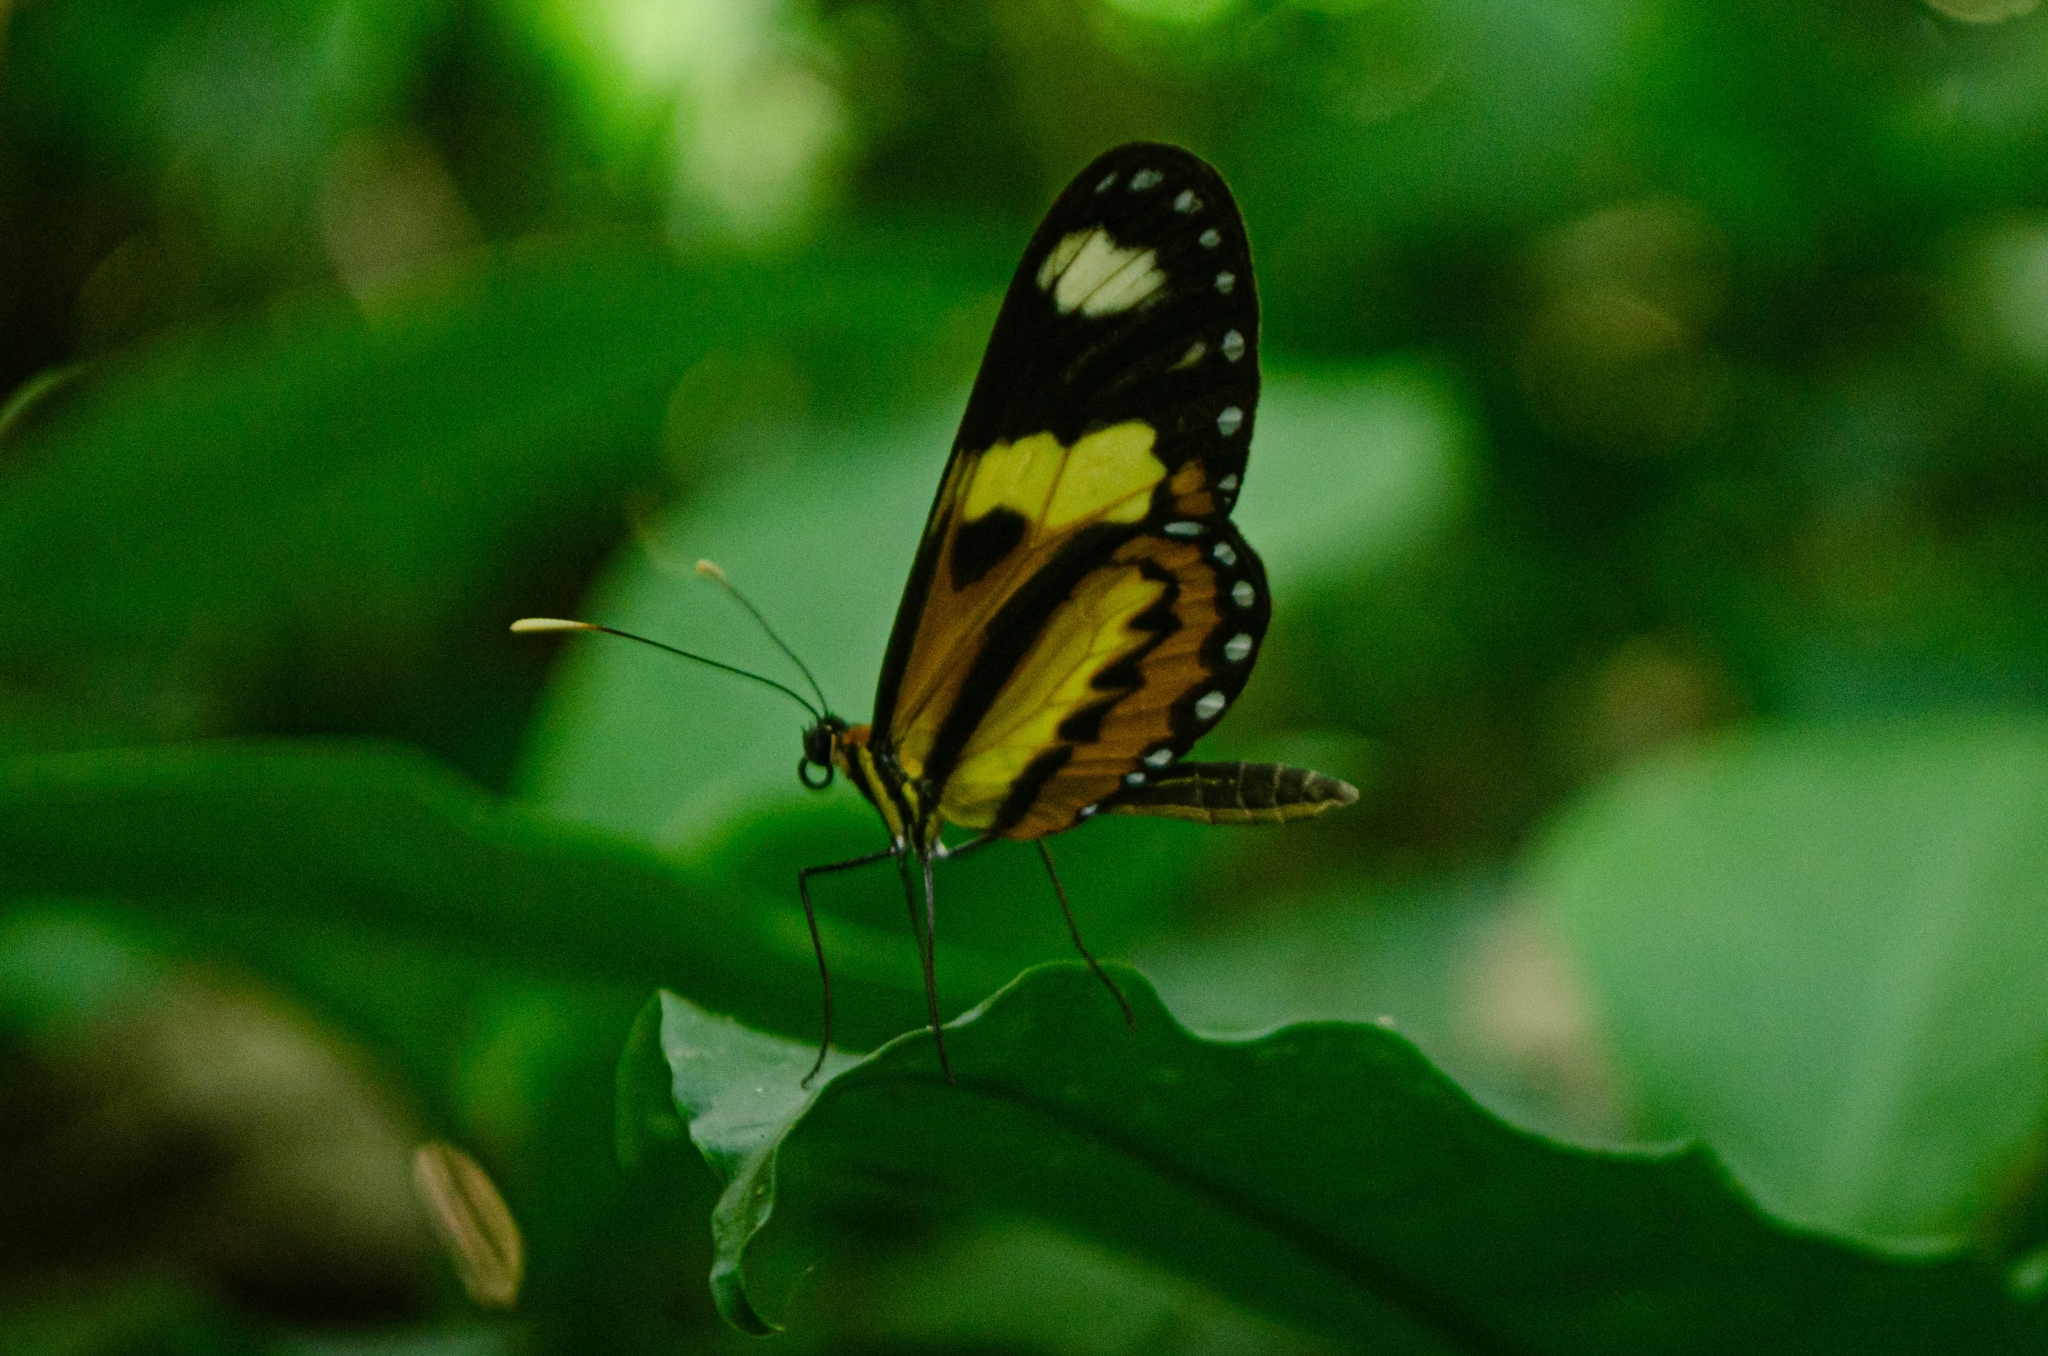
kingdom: Animalia
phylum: Arthropoda
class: Insecta
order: Lepidoptera
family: Nymphalidae
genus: Mechanitis
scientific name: Mechanitis lysimnia
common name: Lysimnia tigerwing
